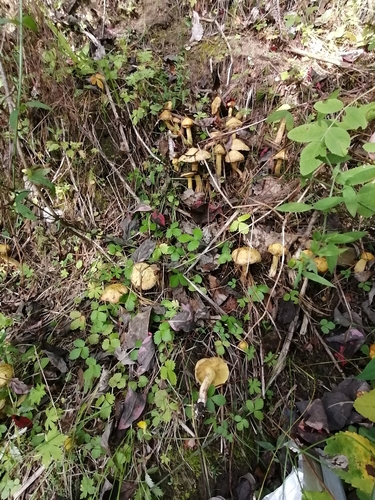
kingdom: Fungi
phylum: Basidiomycota
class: Agaricomycetes
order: Boletales
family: Suillaceae
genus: Suillus
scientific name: Suillus americanus
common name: Chicken fat mushroom
